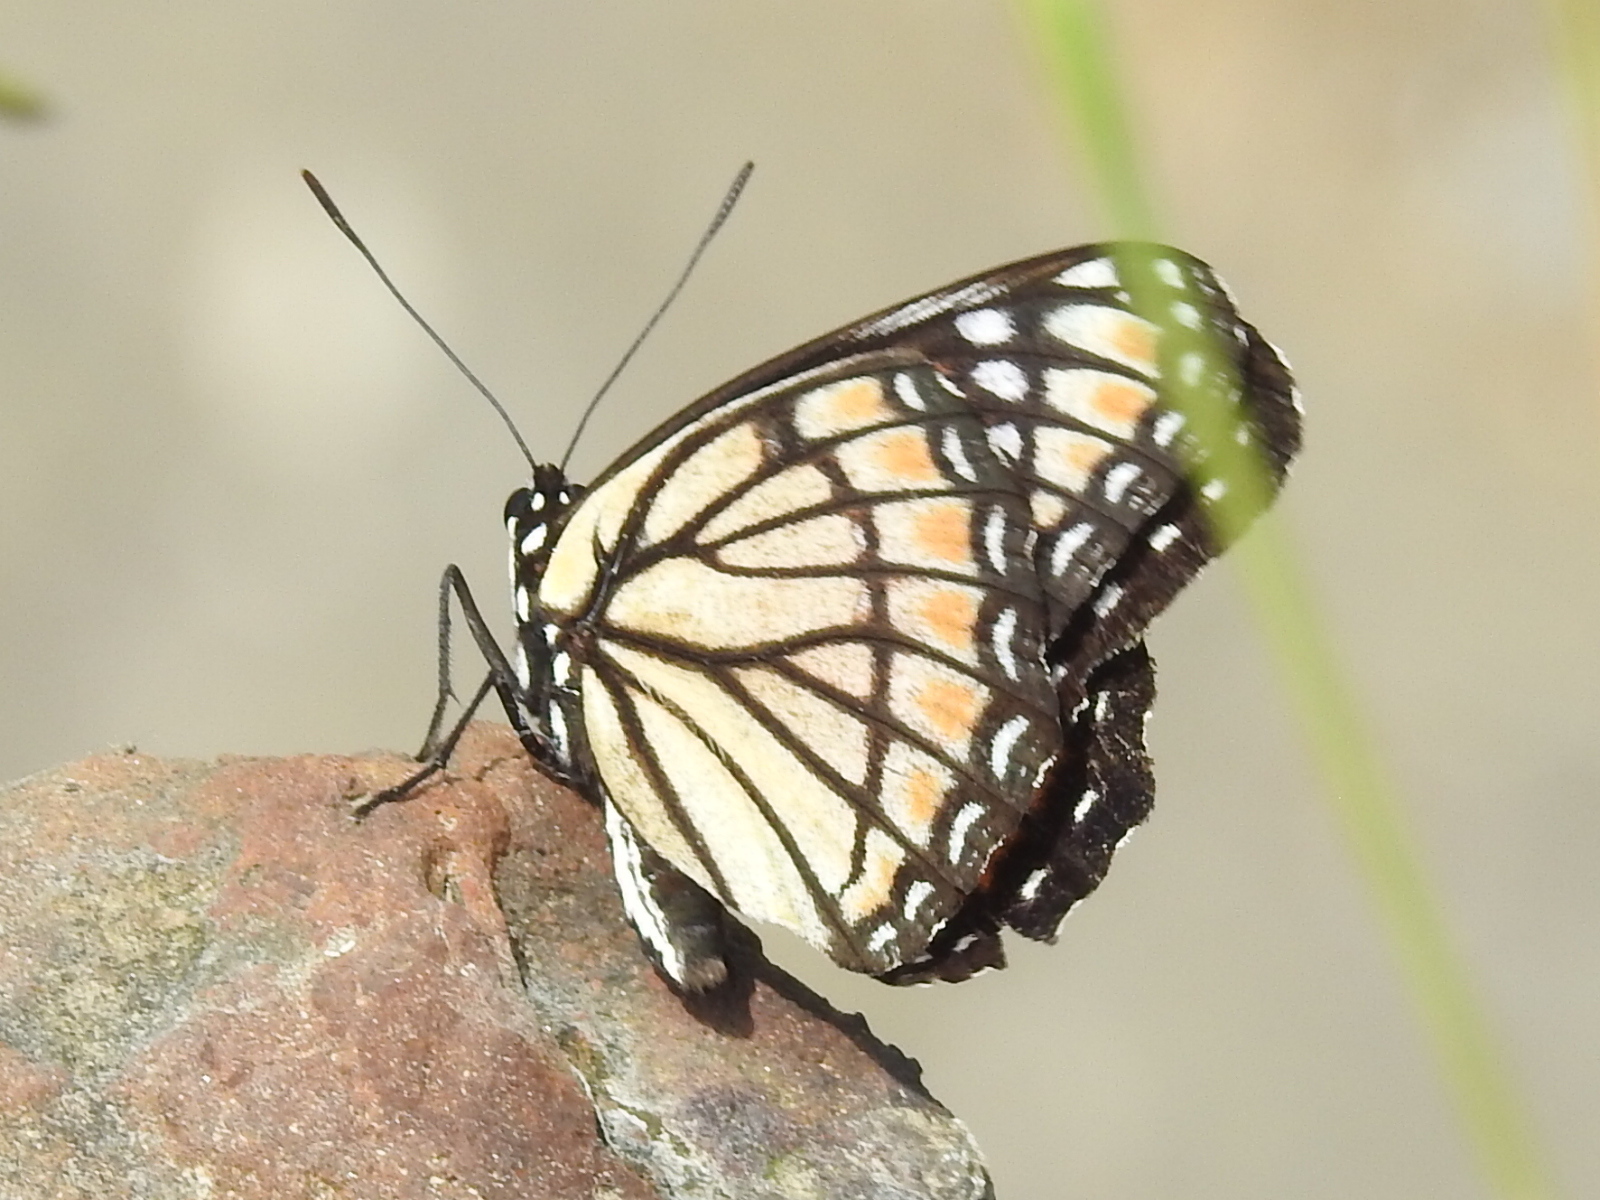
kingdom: Animalia
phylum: Arthropoda
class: Insecta
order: Lepidoptera
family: Nymphalidae
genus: Limenitis
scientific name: Limenitis archippus
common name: Viceroy
